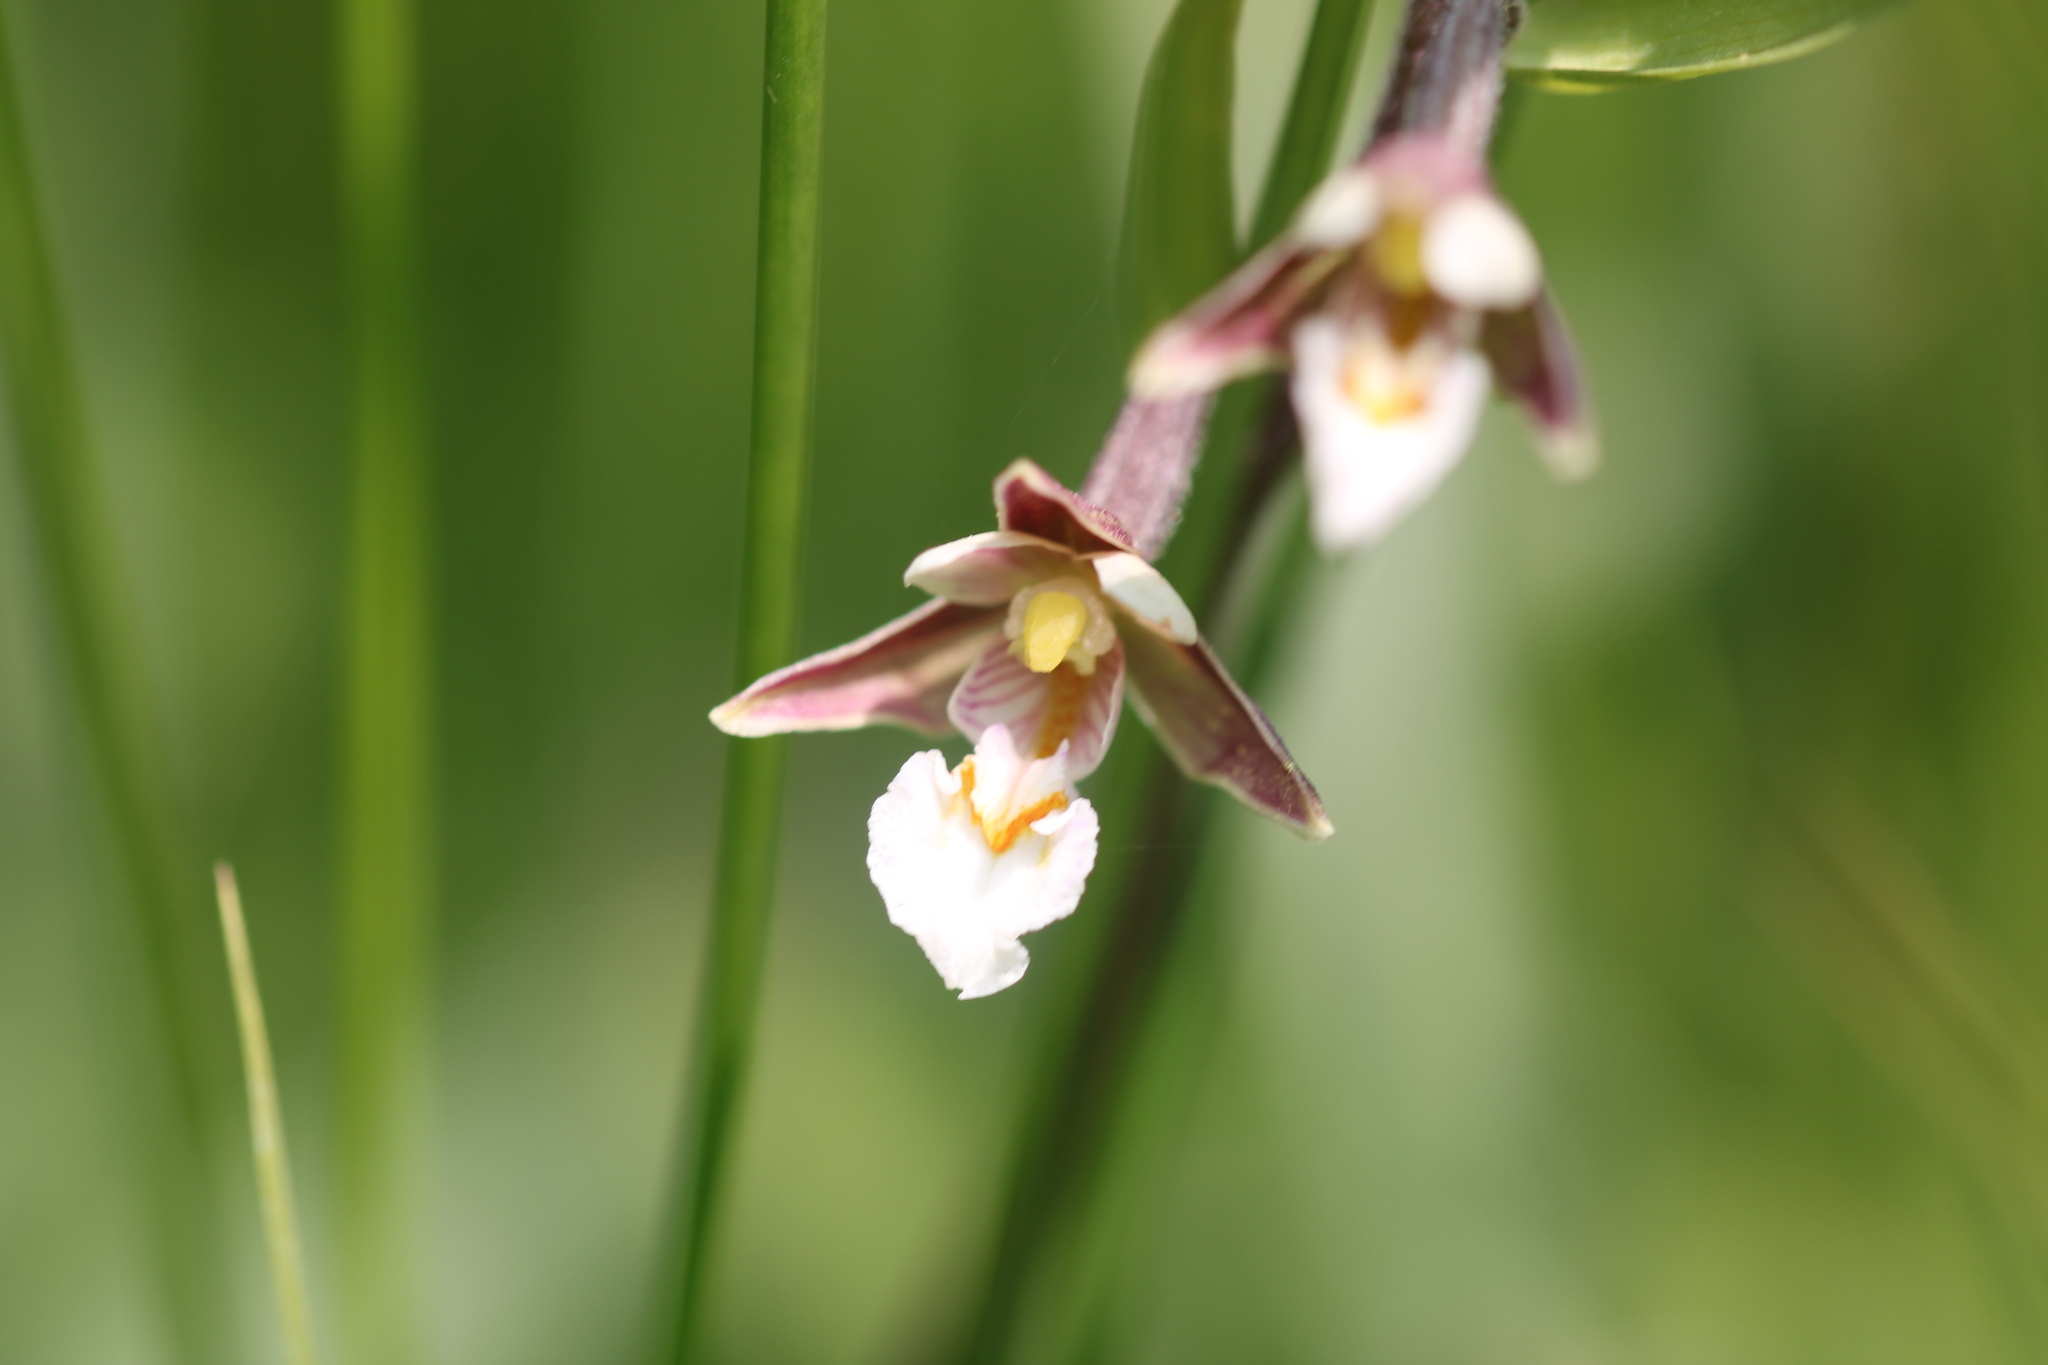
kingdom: Plantae
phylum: Tracheophyta
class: Liliopsida
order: Asparagales
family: Orchidaceae
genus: Epipactis
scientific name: Epipactis palustris
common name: Marsh helleborine
